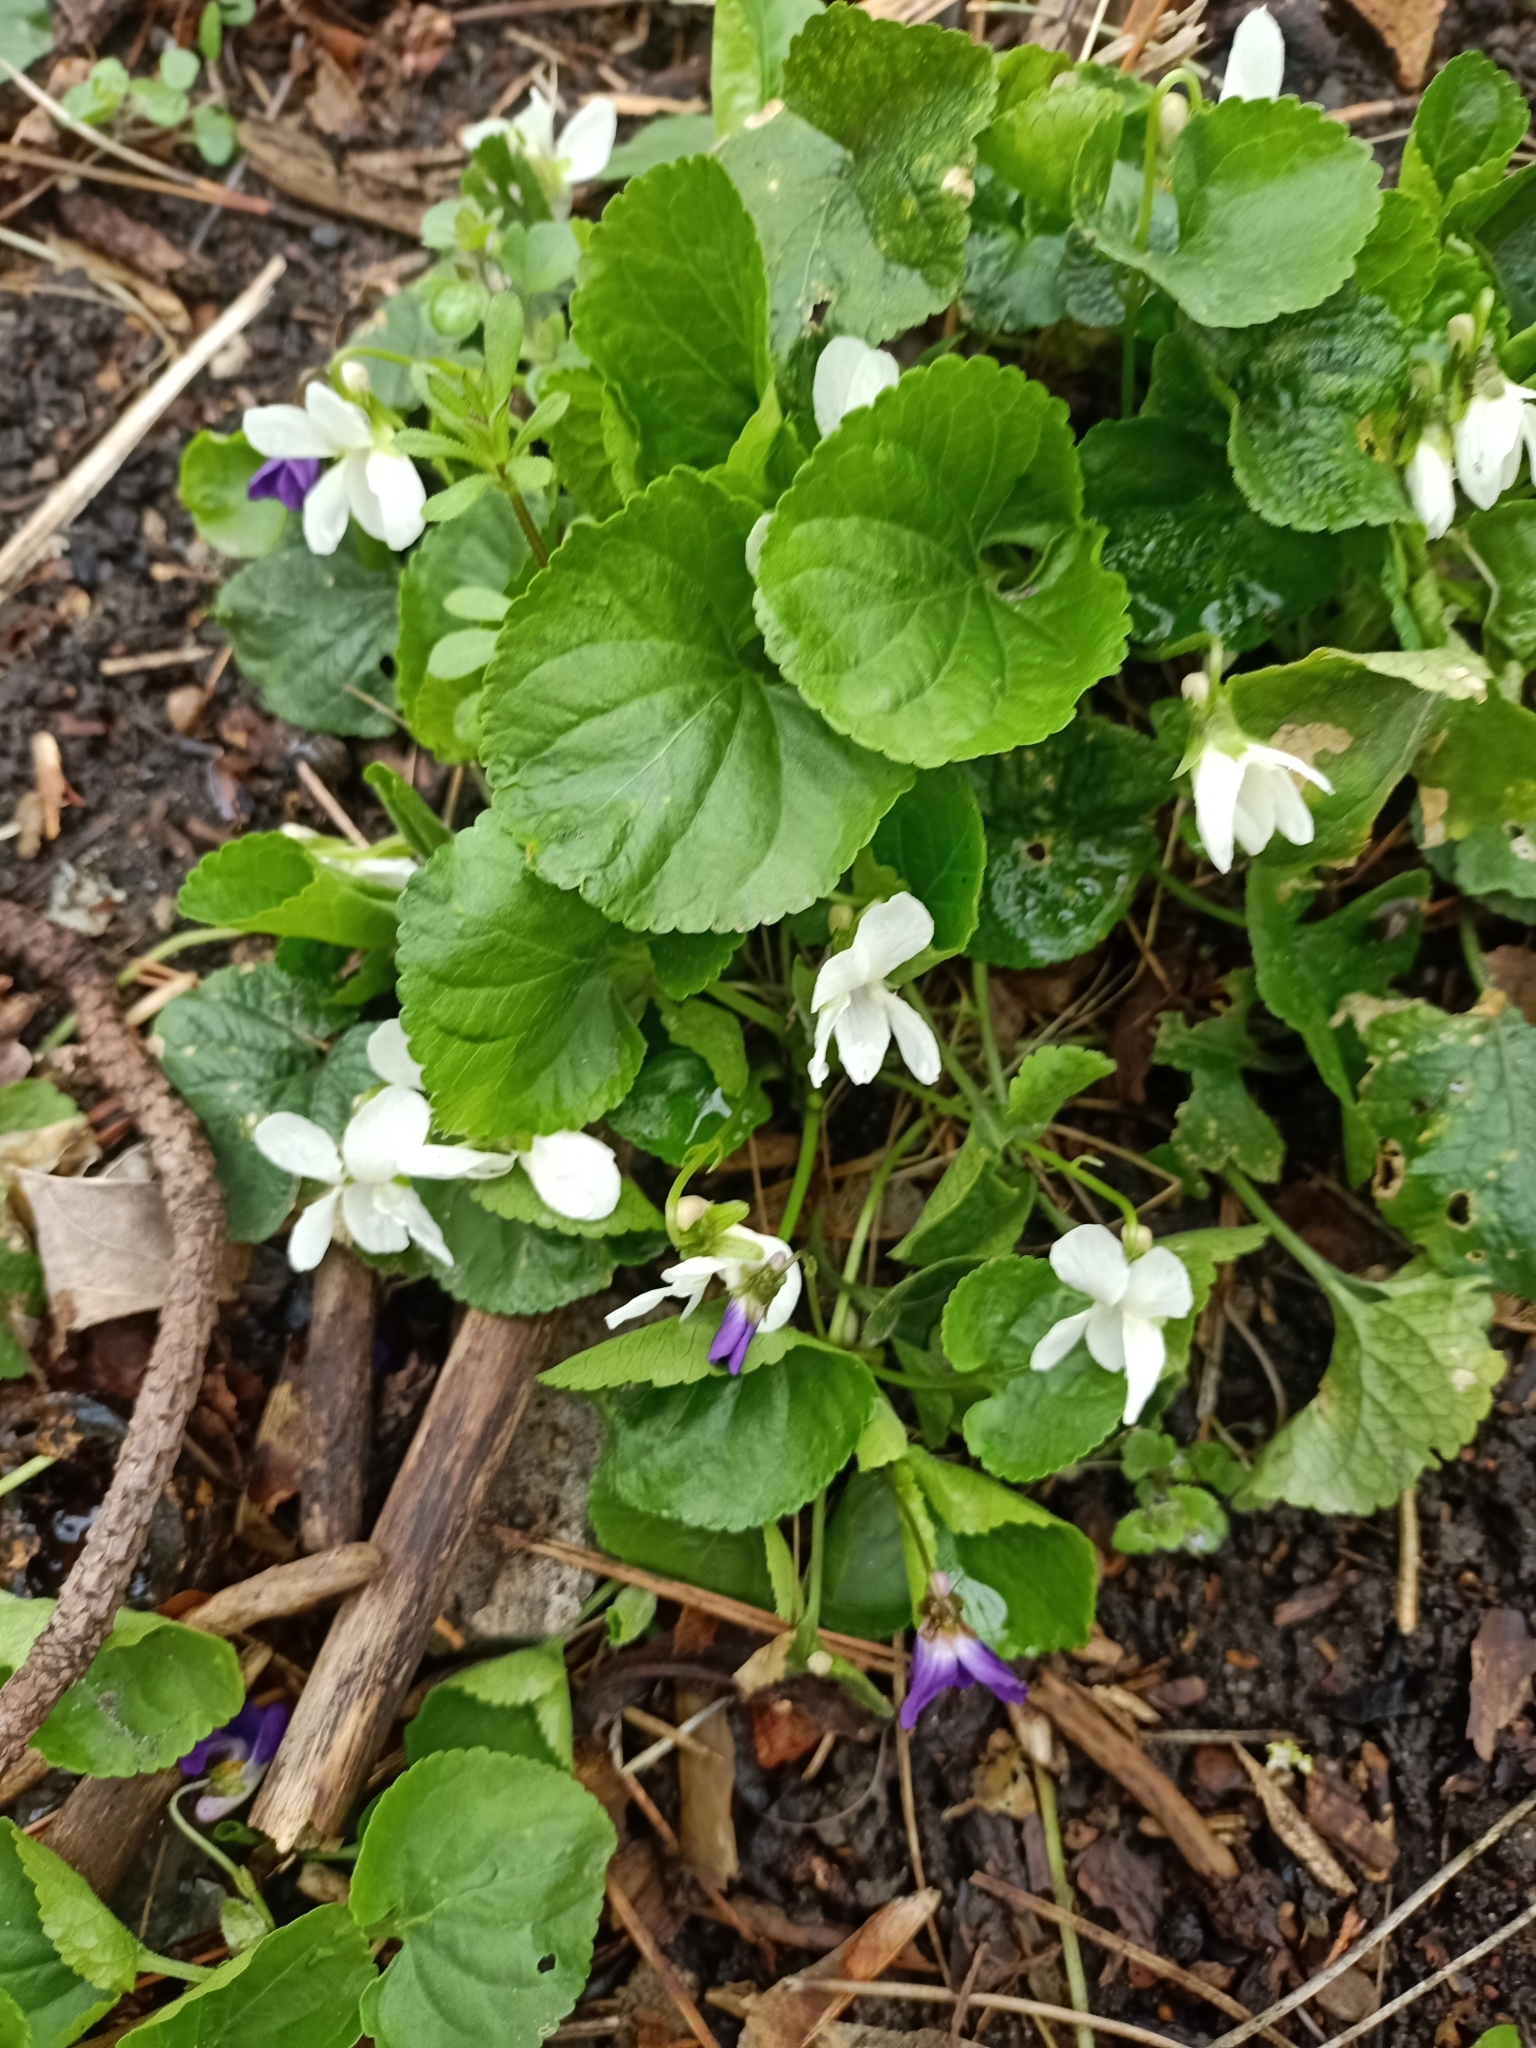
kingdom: Plantae
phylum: Tracheophyta
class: Magnoliopsida
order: Malpighiales
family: Violaceae
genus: Viola
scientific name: Viola odorata
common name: Sweet violet
